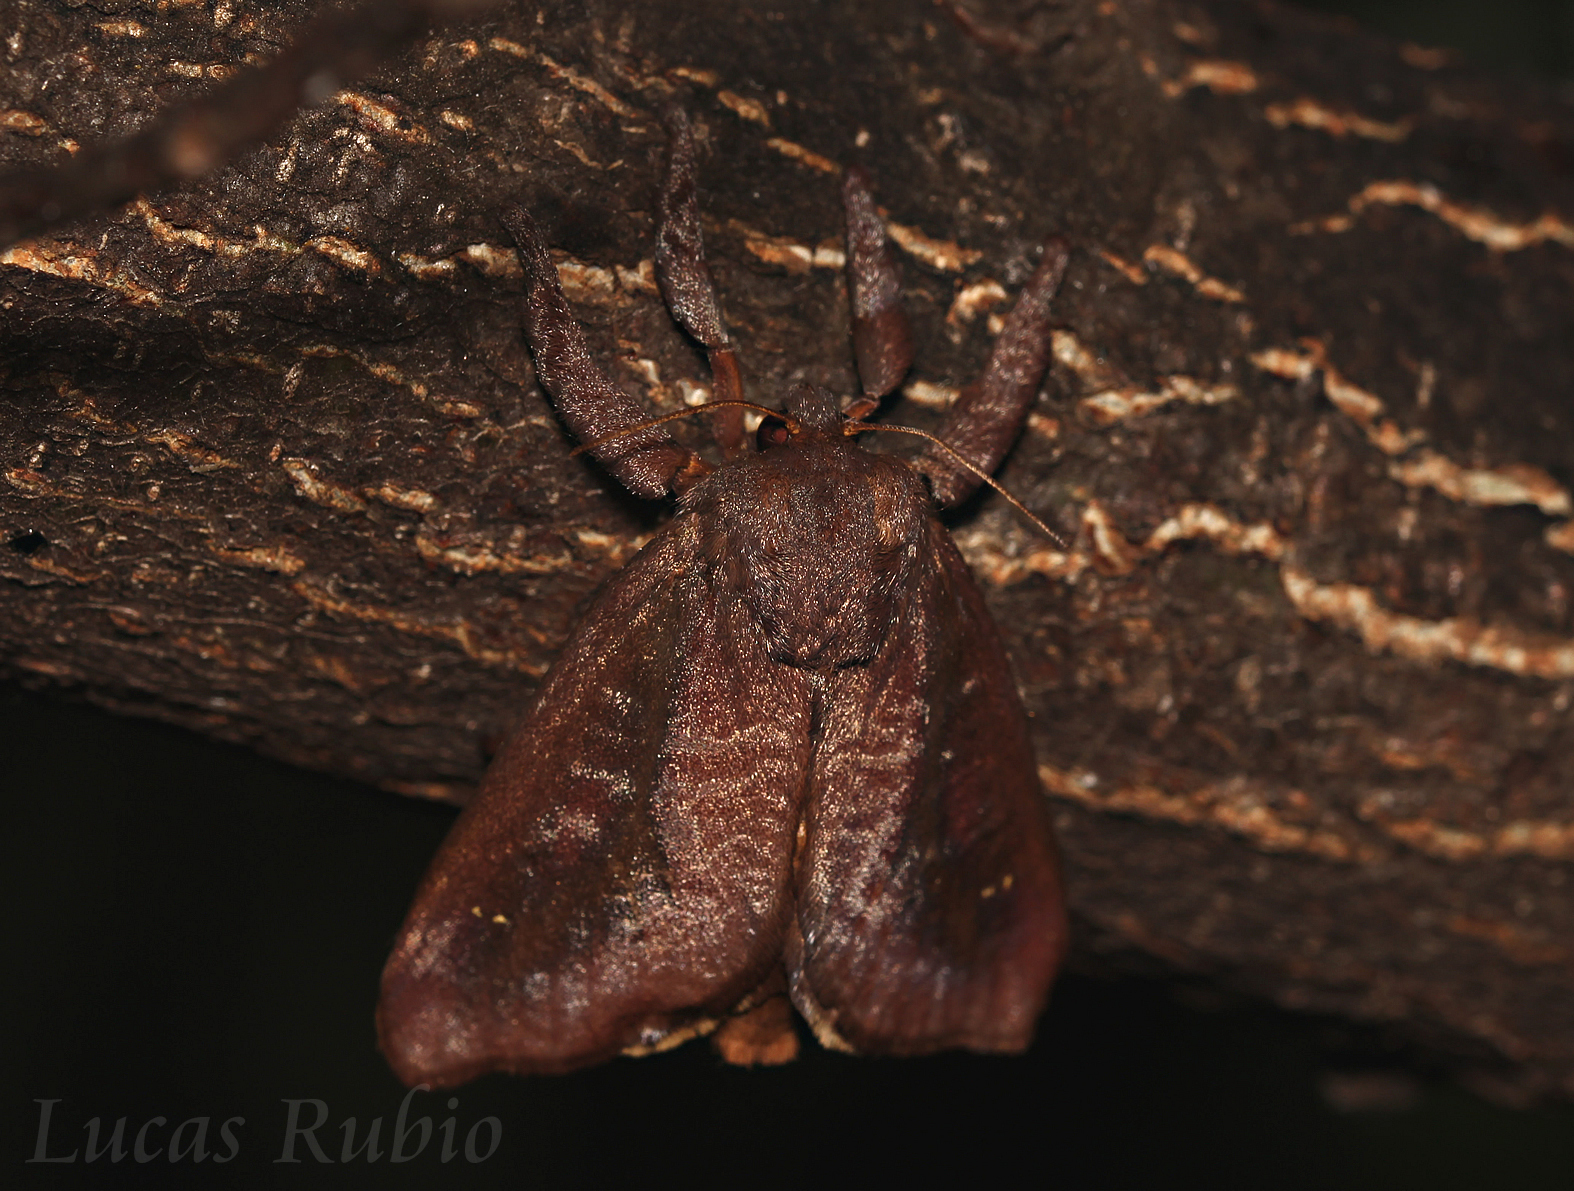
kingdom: Animalia
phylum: Arthropoda
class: Insecta
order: Lepidoptera
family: Limacodidae
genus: Acharia
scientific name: Acharia
